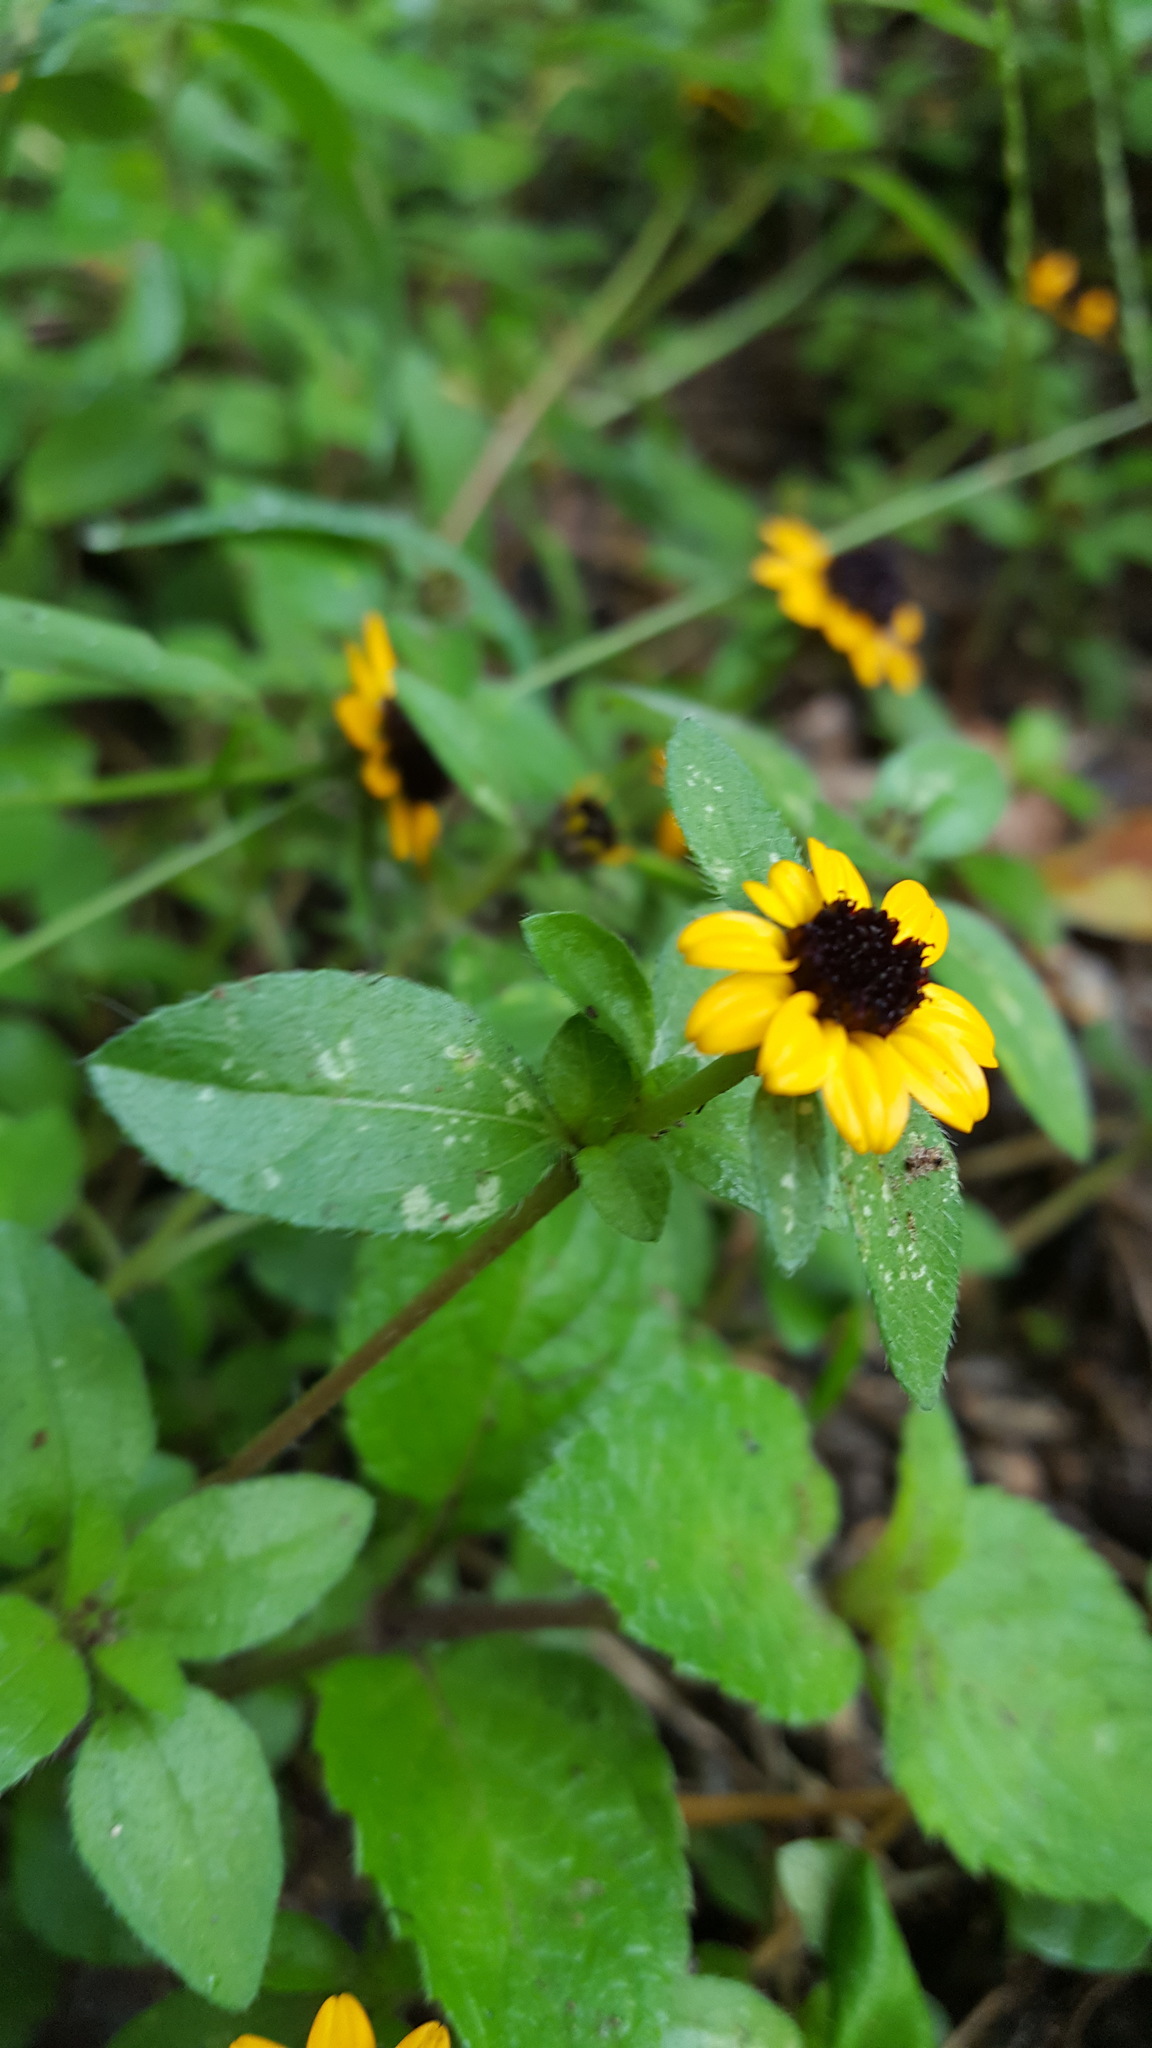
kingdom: Plantae
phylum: Tracheophyta
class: Magnoliopsida
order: Asterales
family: Asteraceae
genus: Sanvitalia
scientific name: Sanvitalia procumbens
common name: Mexican creeping zinnia
